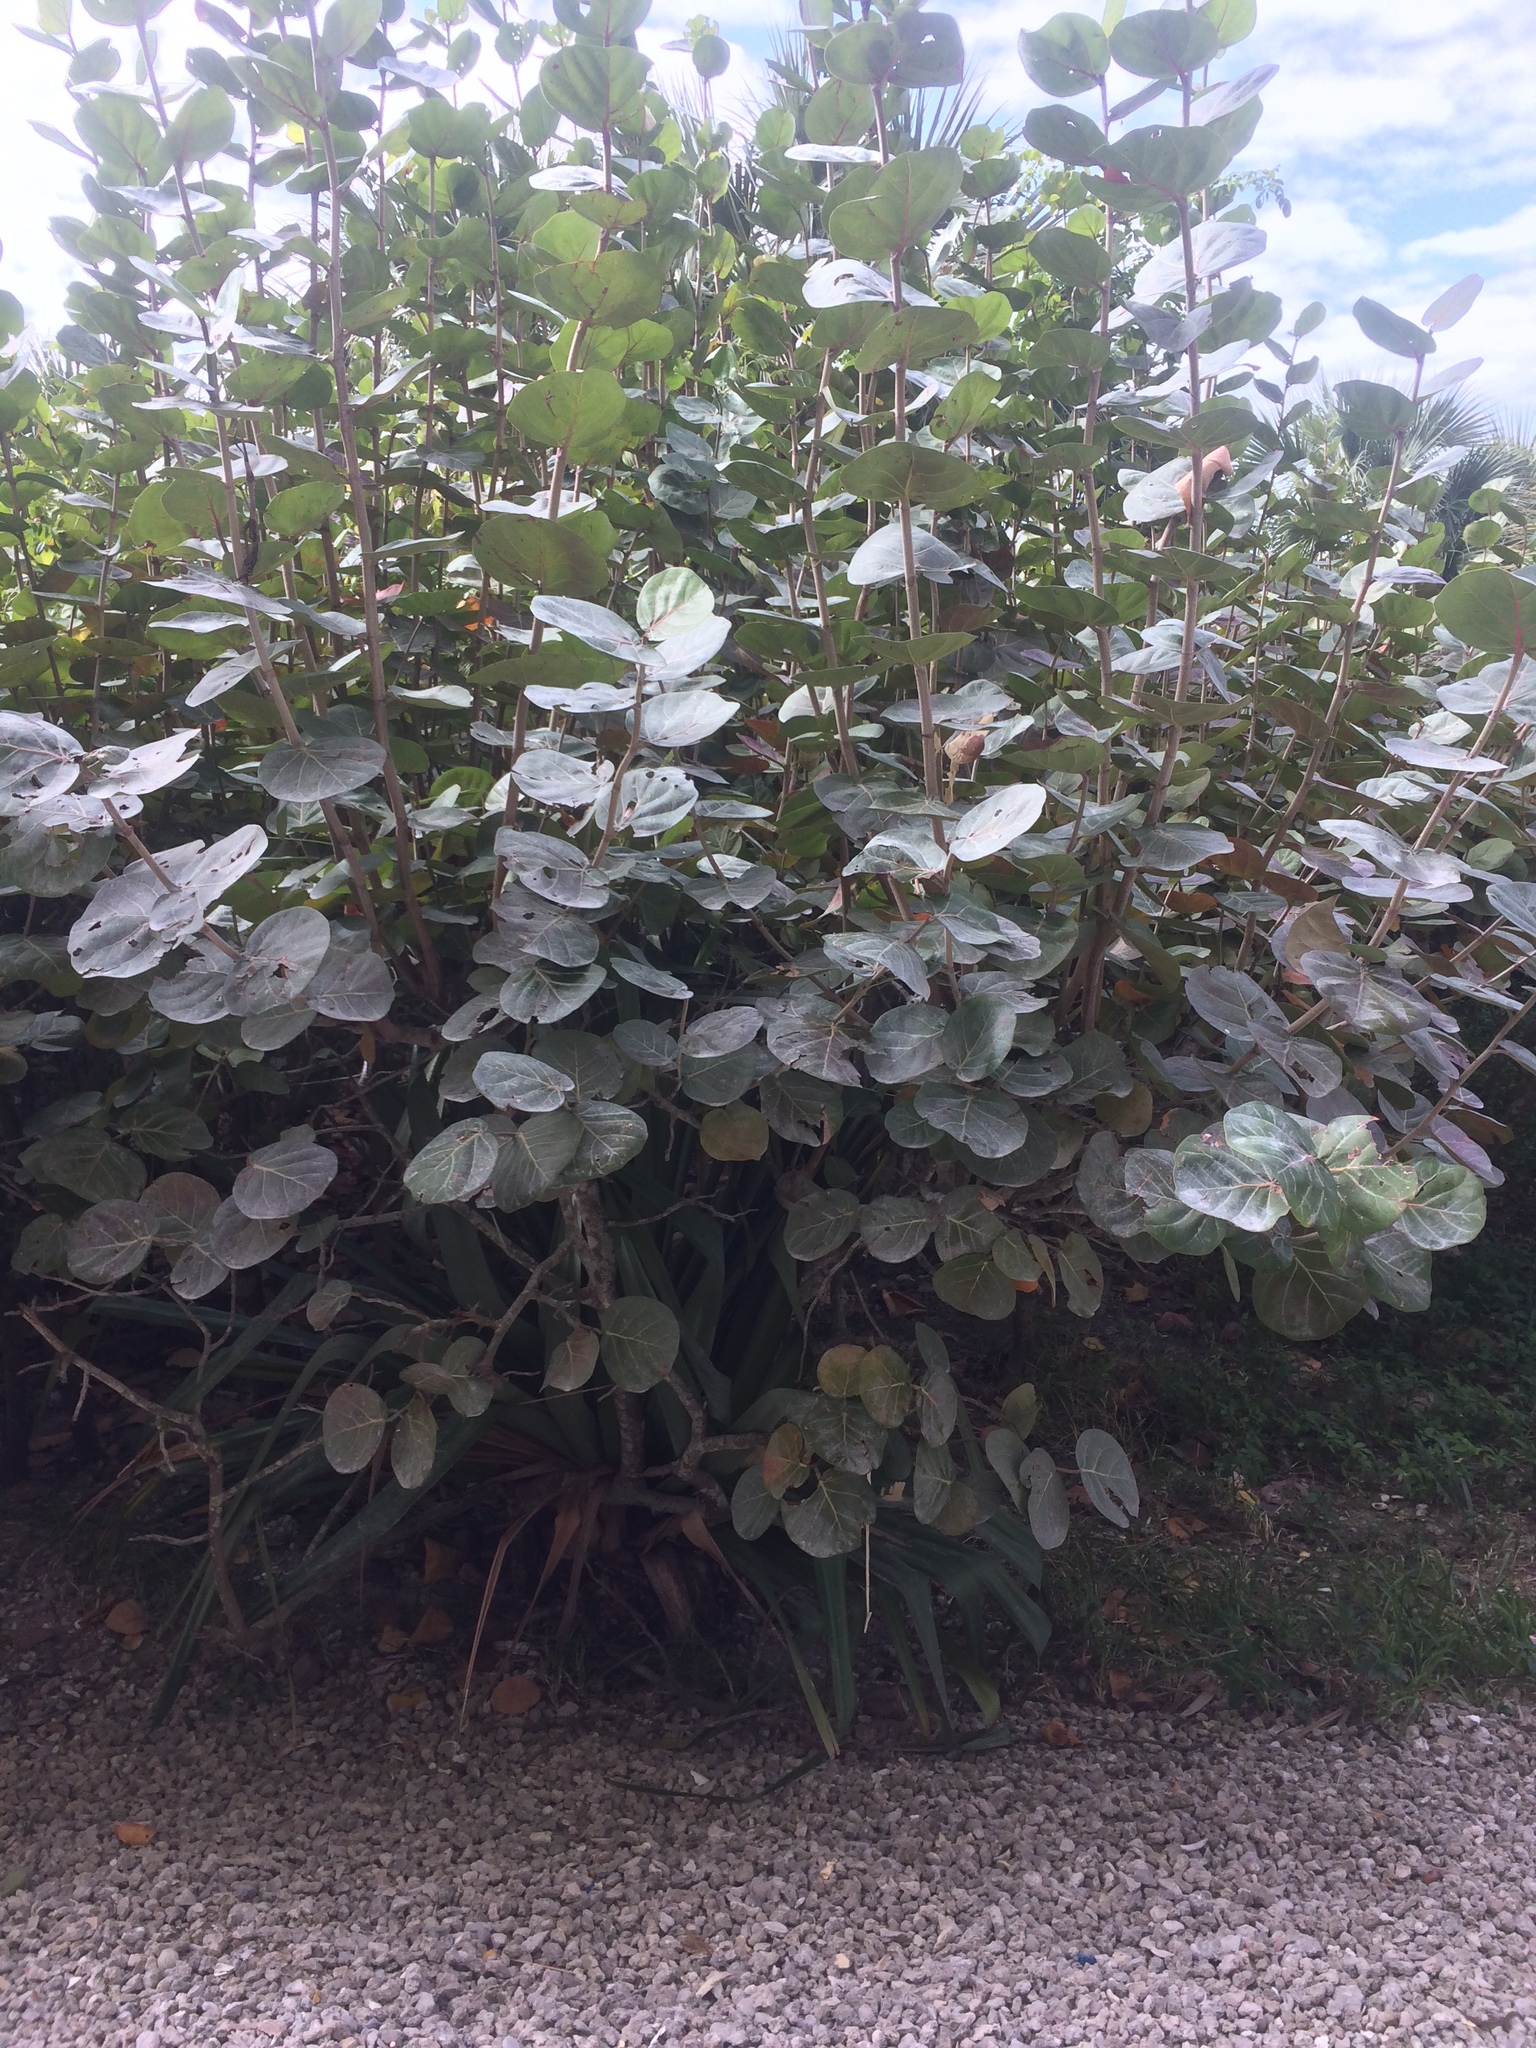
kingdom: Plantae
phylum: Tracheophyta
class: Magnoliopsida
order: Caryophyllales
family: Polygonaceae
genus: Coccoloba
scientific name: Coccoloba uvifera
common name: Seagrape
